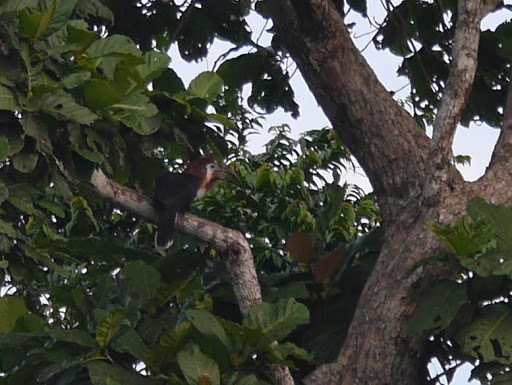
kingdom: Animalia
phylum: Chordata
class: Aves
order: Bucerotiformes
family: Bucerotidae
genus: Ceratogymna
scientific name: Ceratogymna atrata
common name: Black-casqued hornbill
